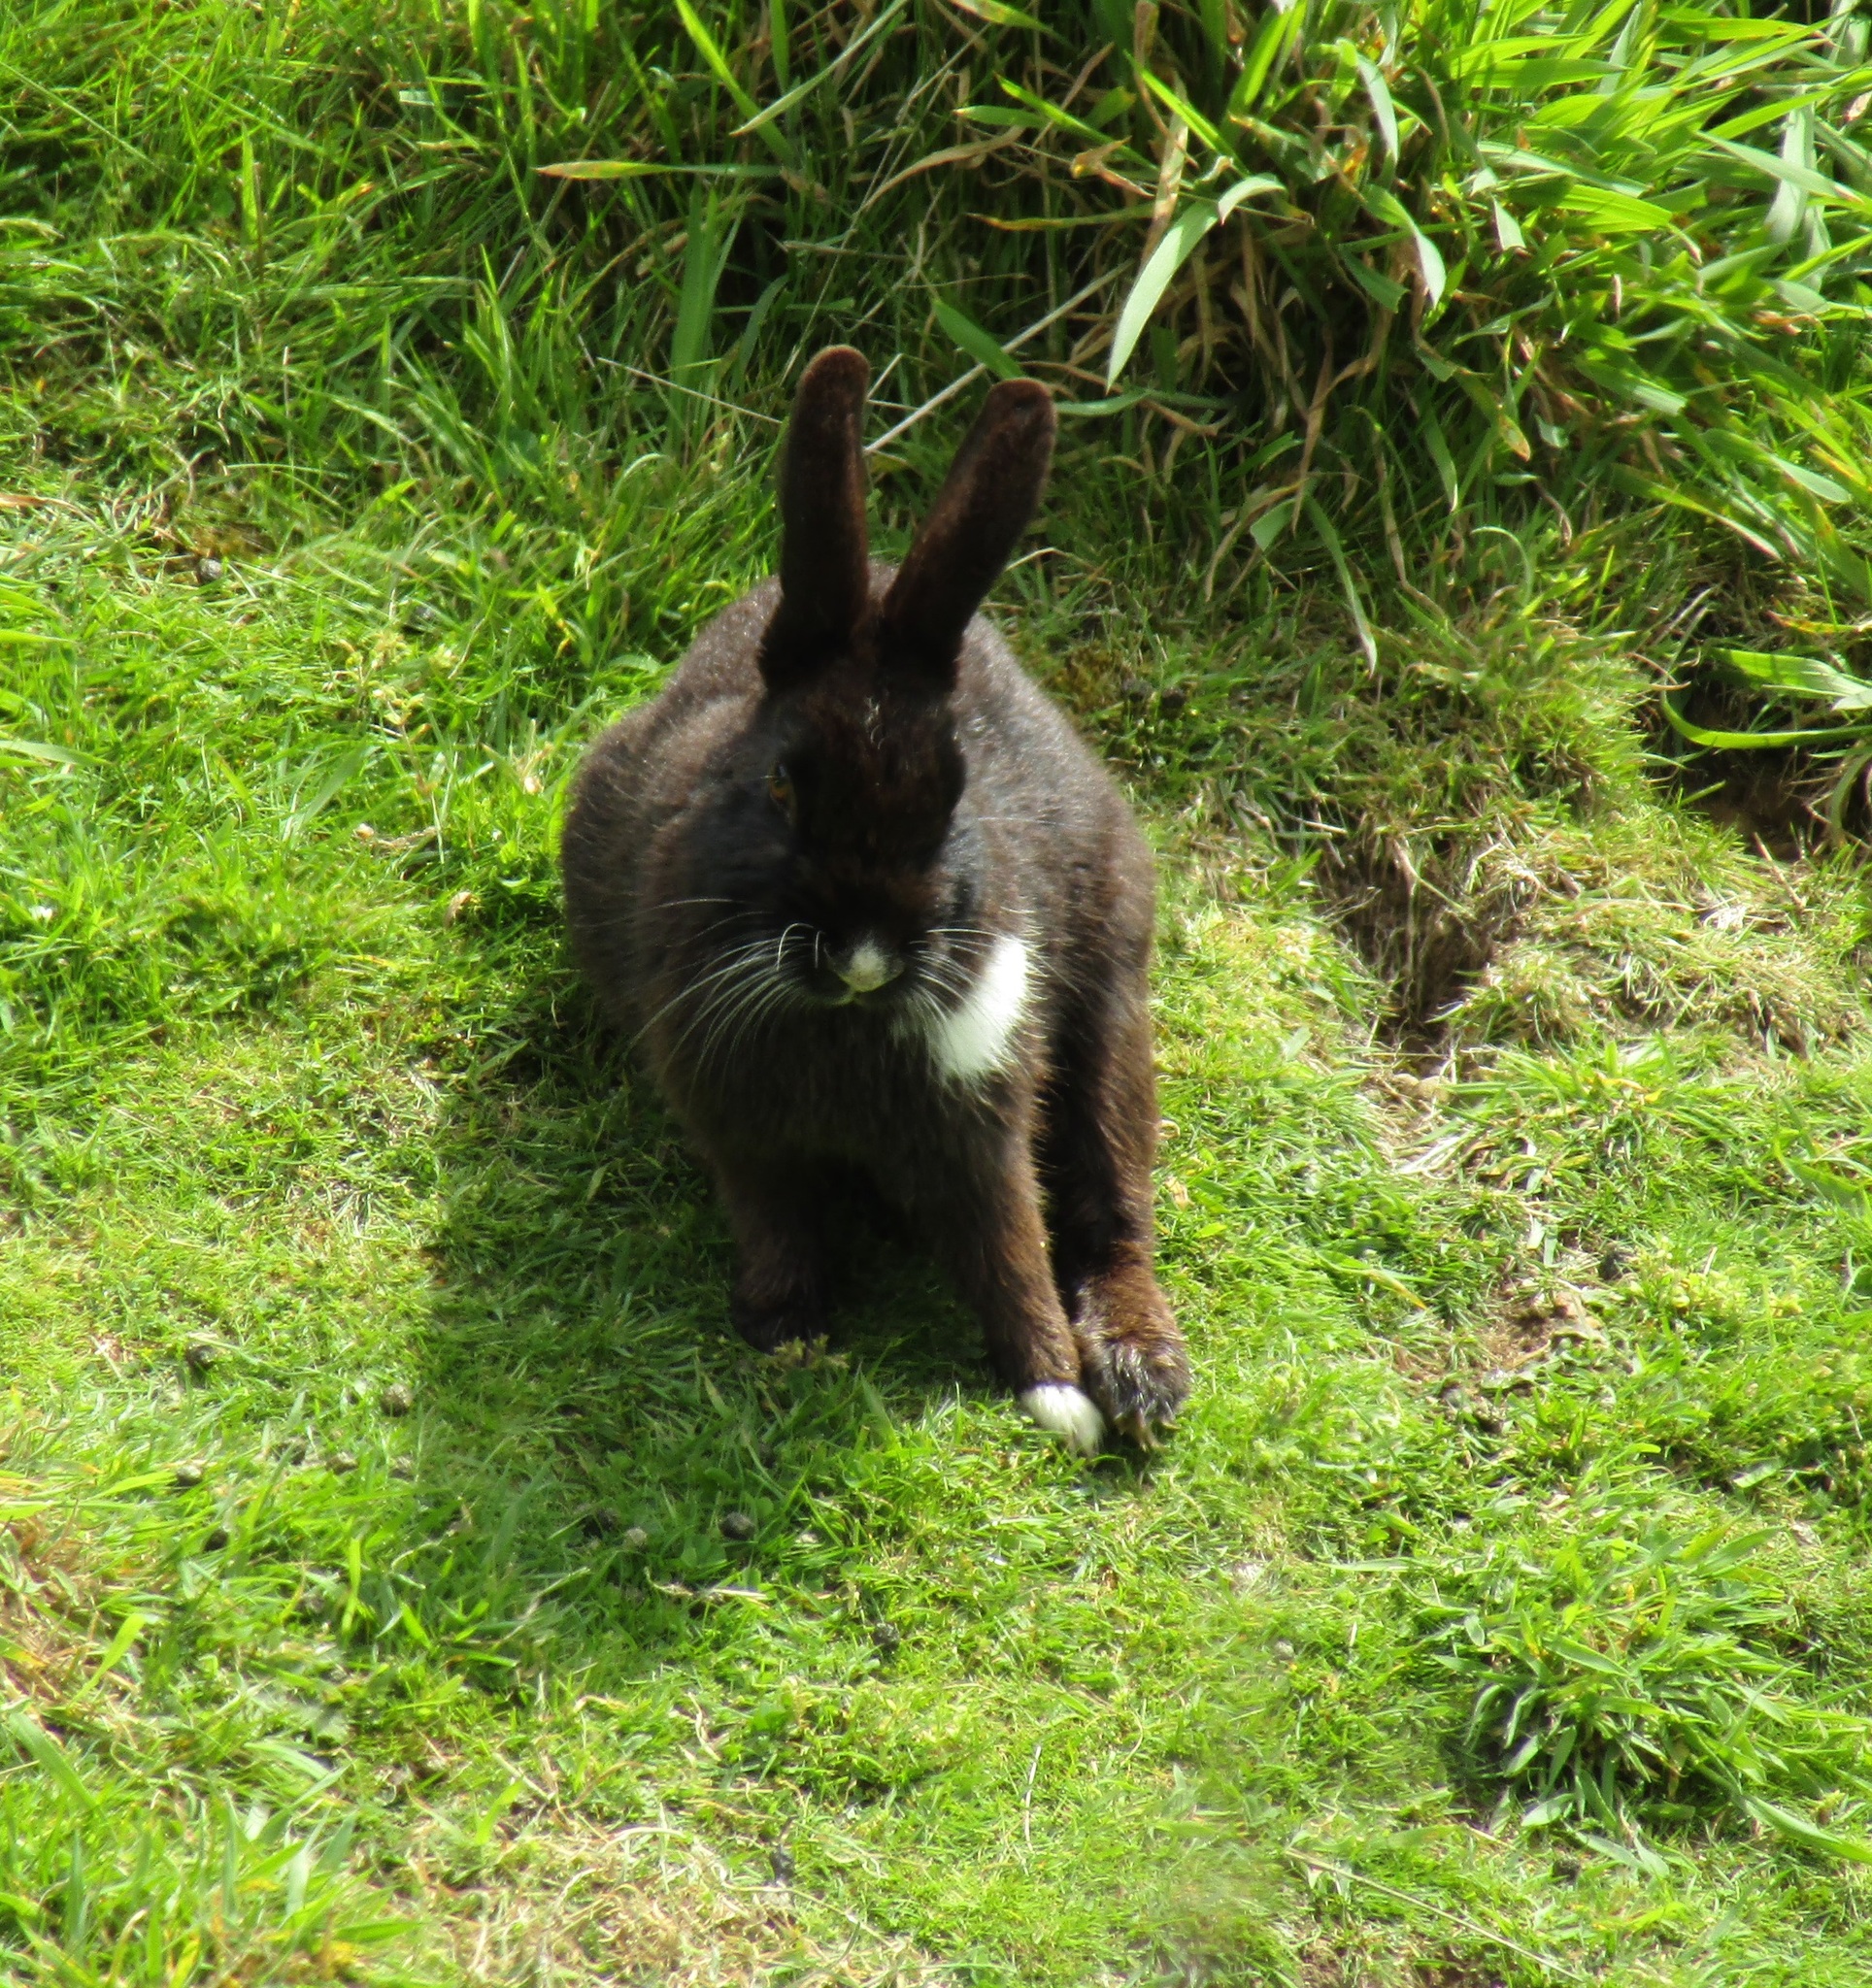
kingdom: Animalia
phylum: Chordata
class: Mammalia
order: Lagomorpha
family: Leporidae
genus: Oryctolagus
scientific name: Oryctolagus cuniculus
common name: European rabbit
